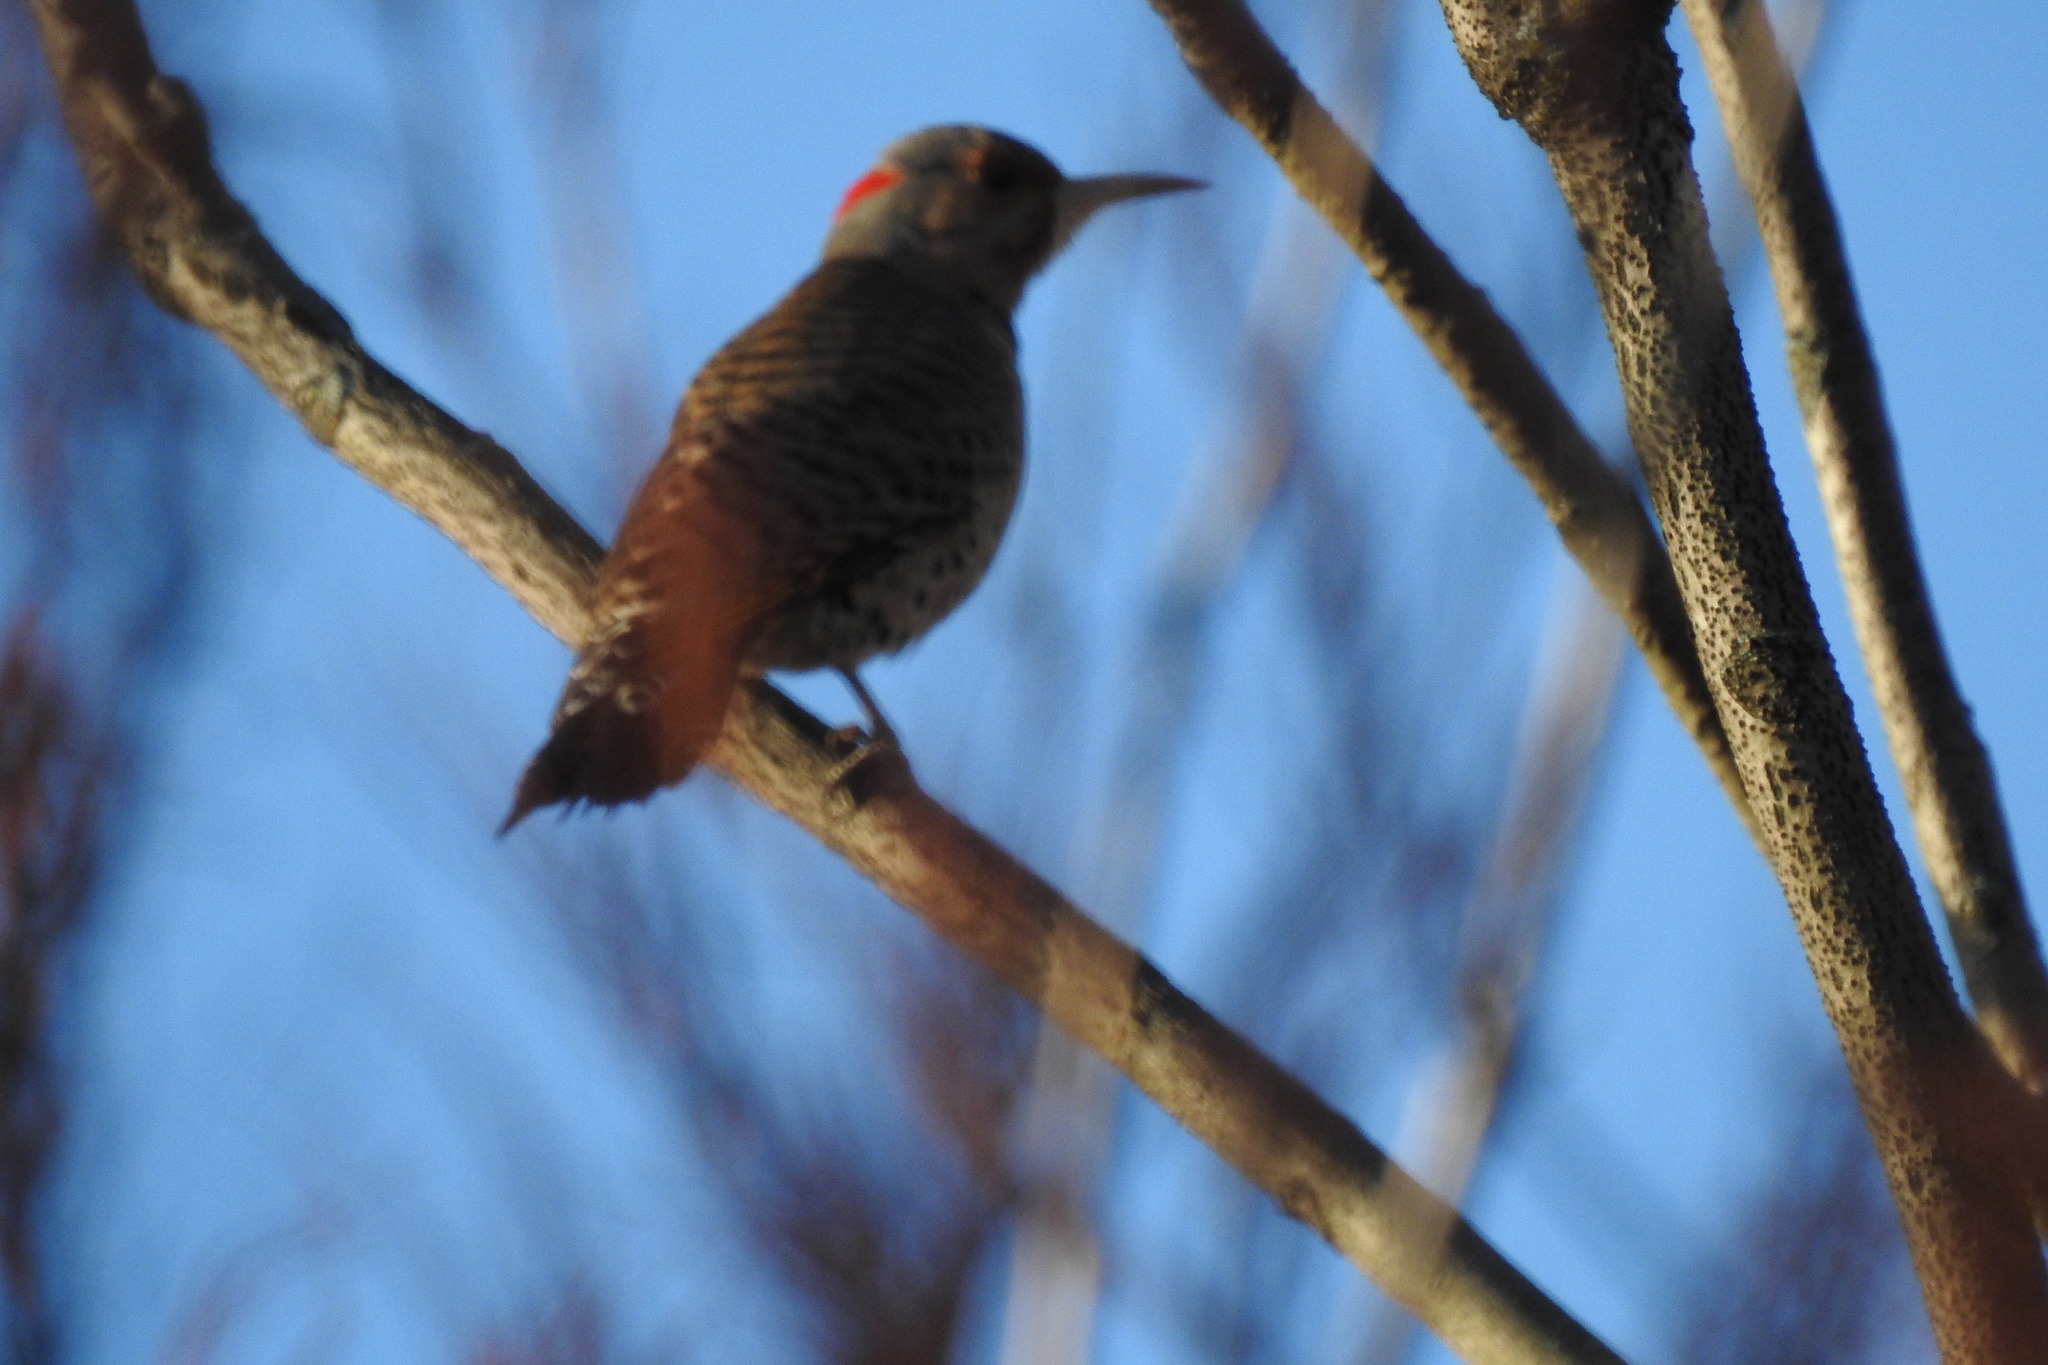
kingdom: Animalia
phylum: Chordata
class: Aves
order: Piciformes
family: Picidae
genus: Colaptes
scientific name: Colaptes auratus
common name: Northern flicker
